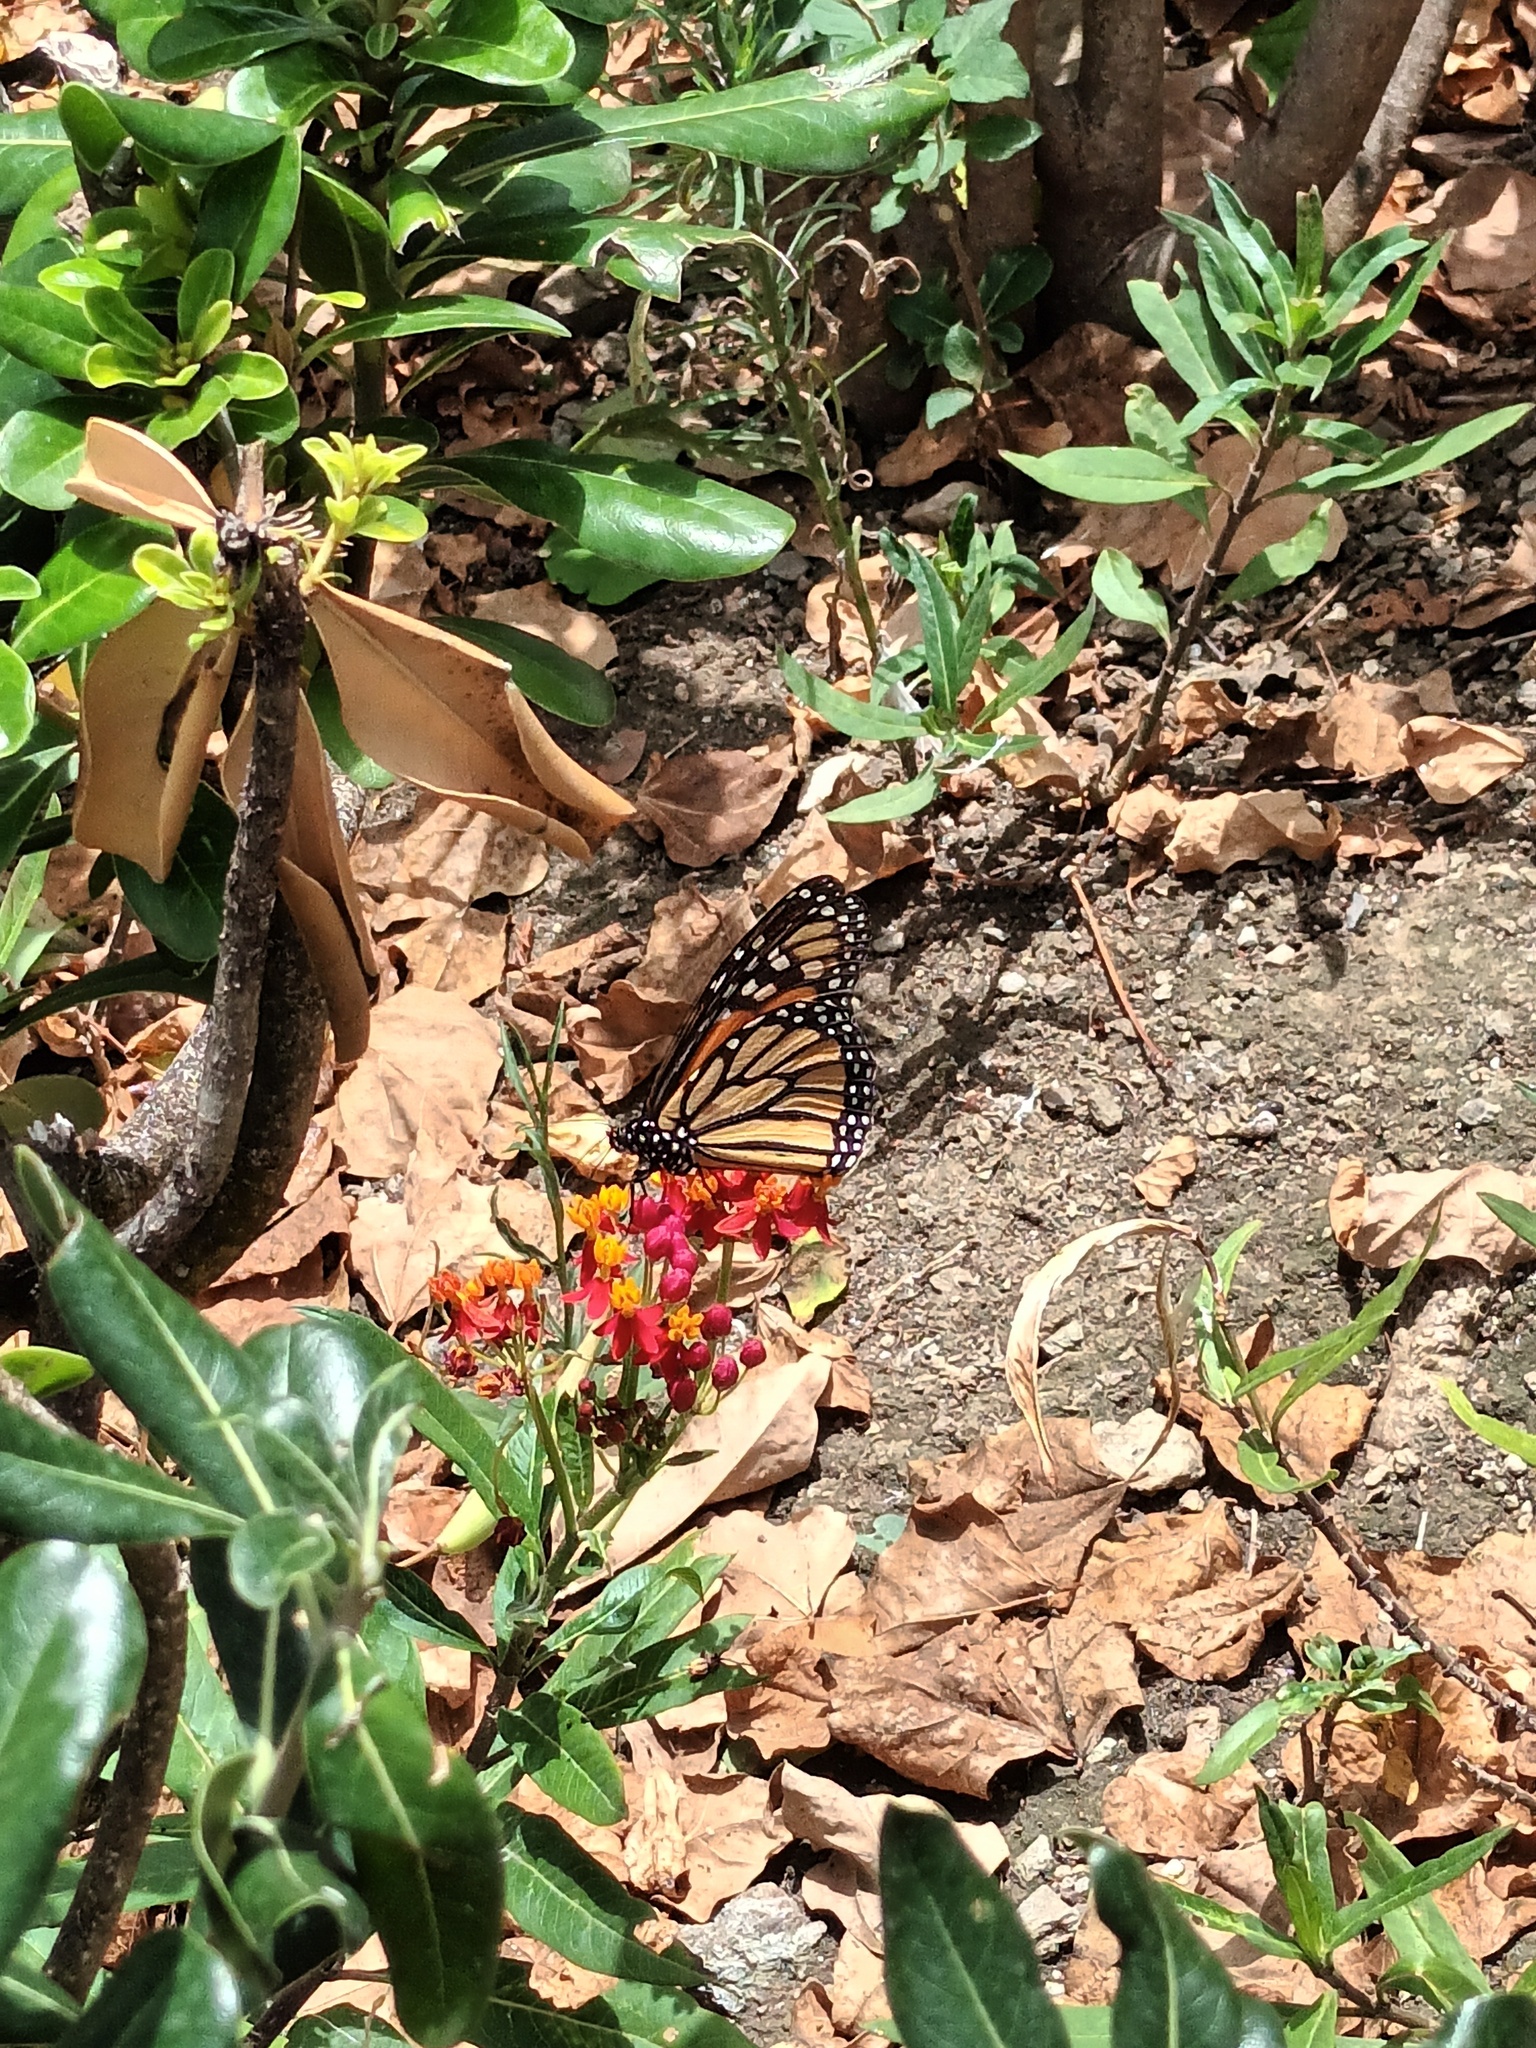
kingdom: Animalia
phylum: Arthropoda
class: Insecta
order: Lepidoptera
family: Nymphalidae
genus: Danaus
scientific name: Danaus plexippus
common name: Monarch
